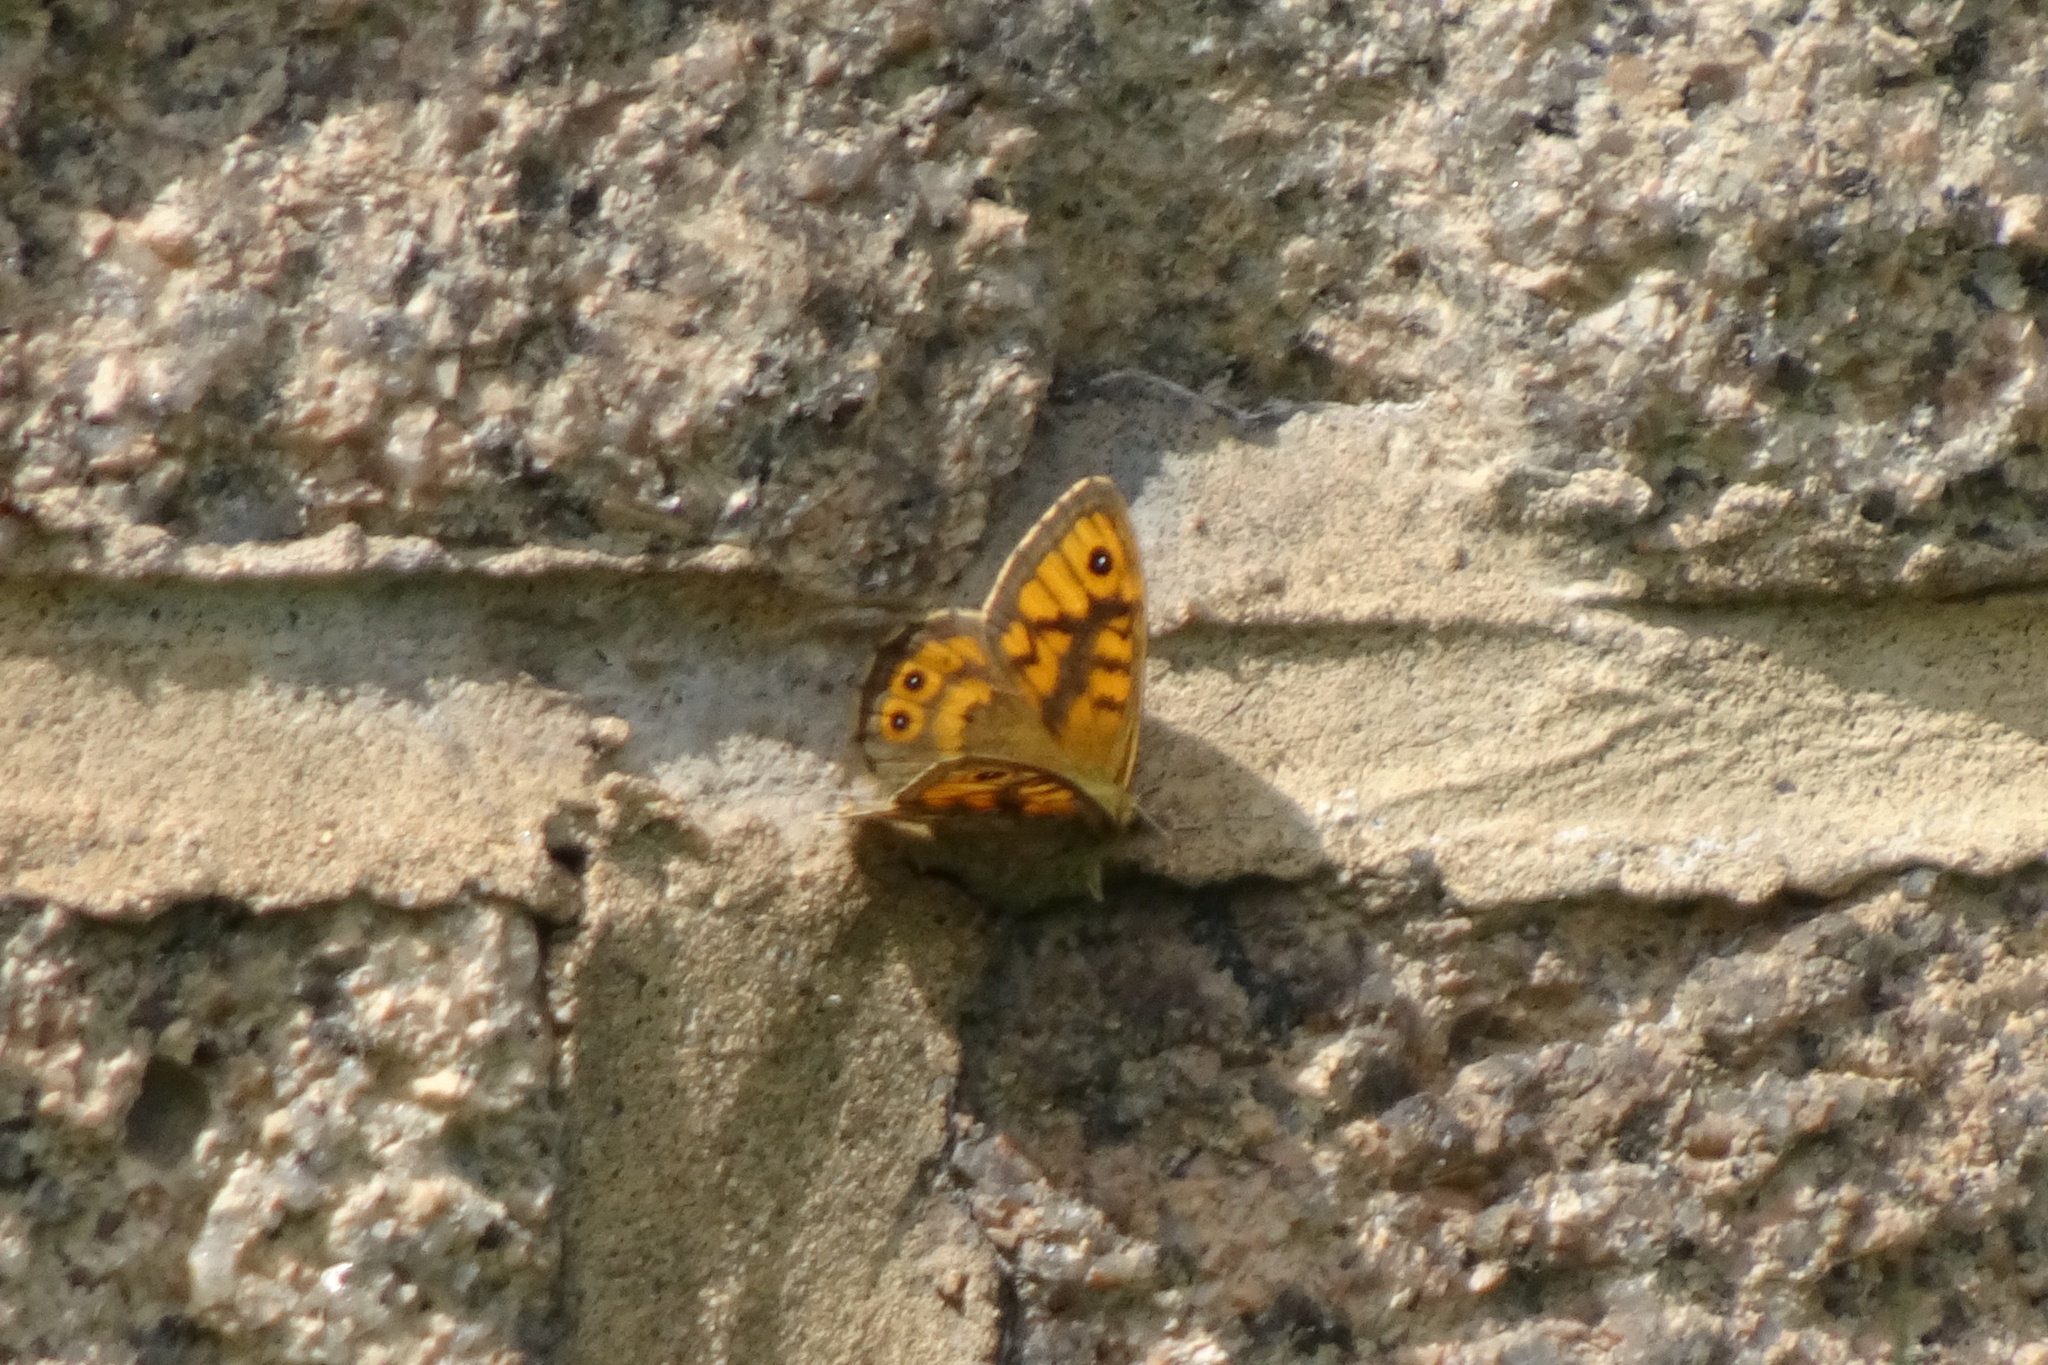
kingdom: Animalia
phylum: Arthropoda
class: Insecta
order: Lepidoptera
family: Nymphalidae
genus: Pararge
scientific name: Pararge Lasiommata megera
